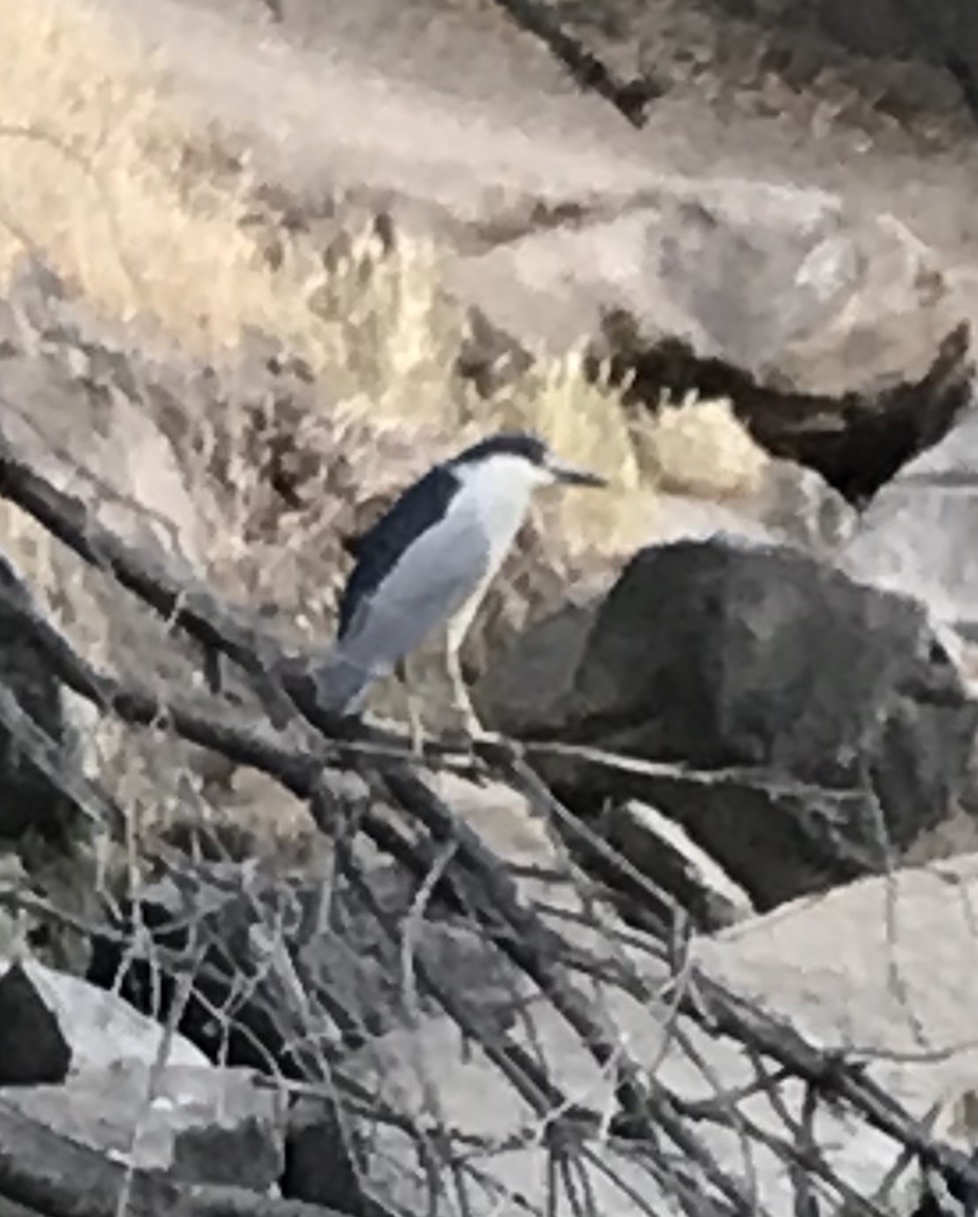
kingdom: Animalia
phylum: Chordata
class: Aves
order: Pelecaniformes
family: Ardeidae
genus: Nycticorax
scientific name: Nycticorax nycticorax
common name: Black-crowned night heron
